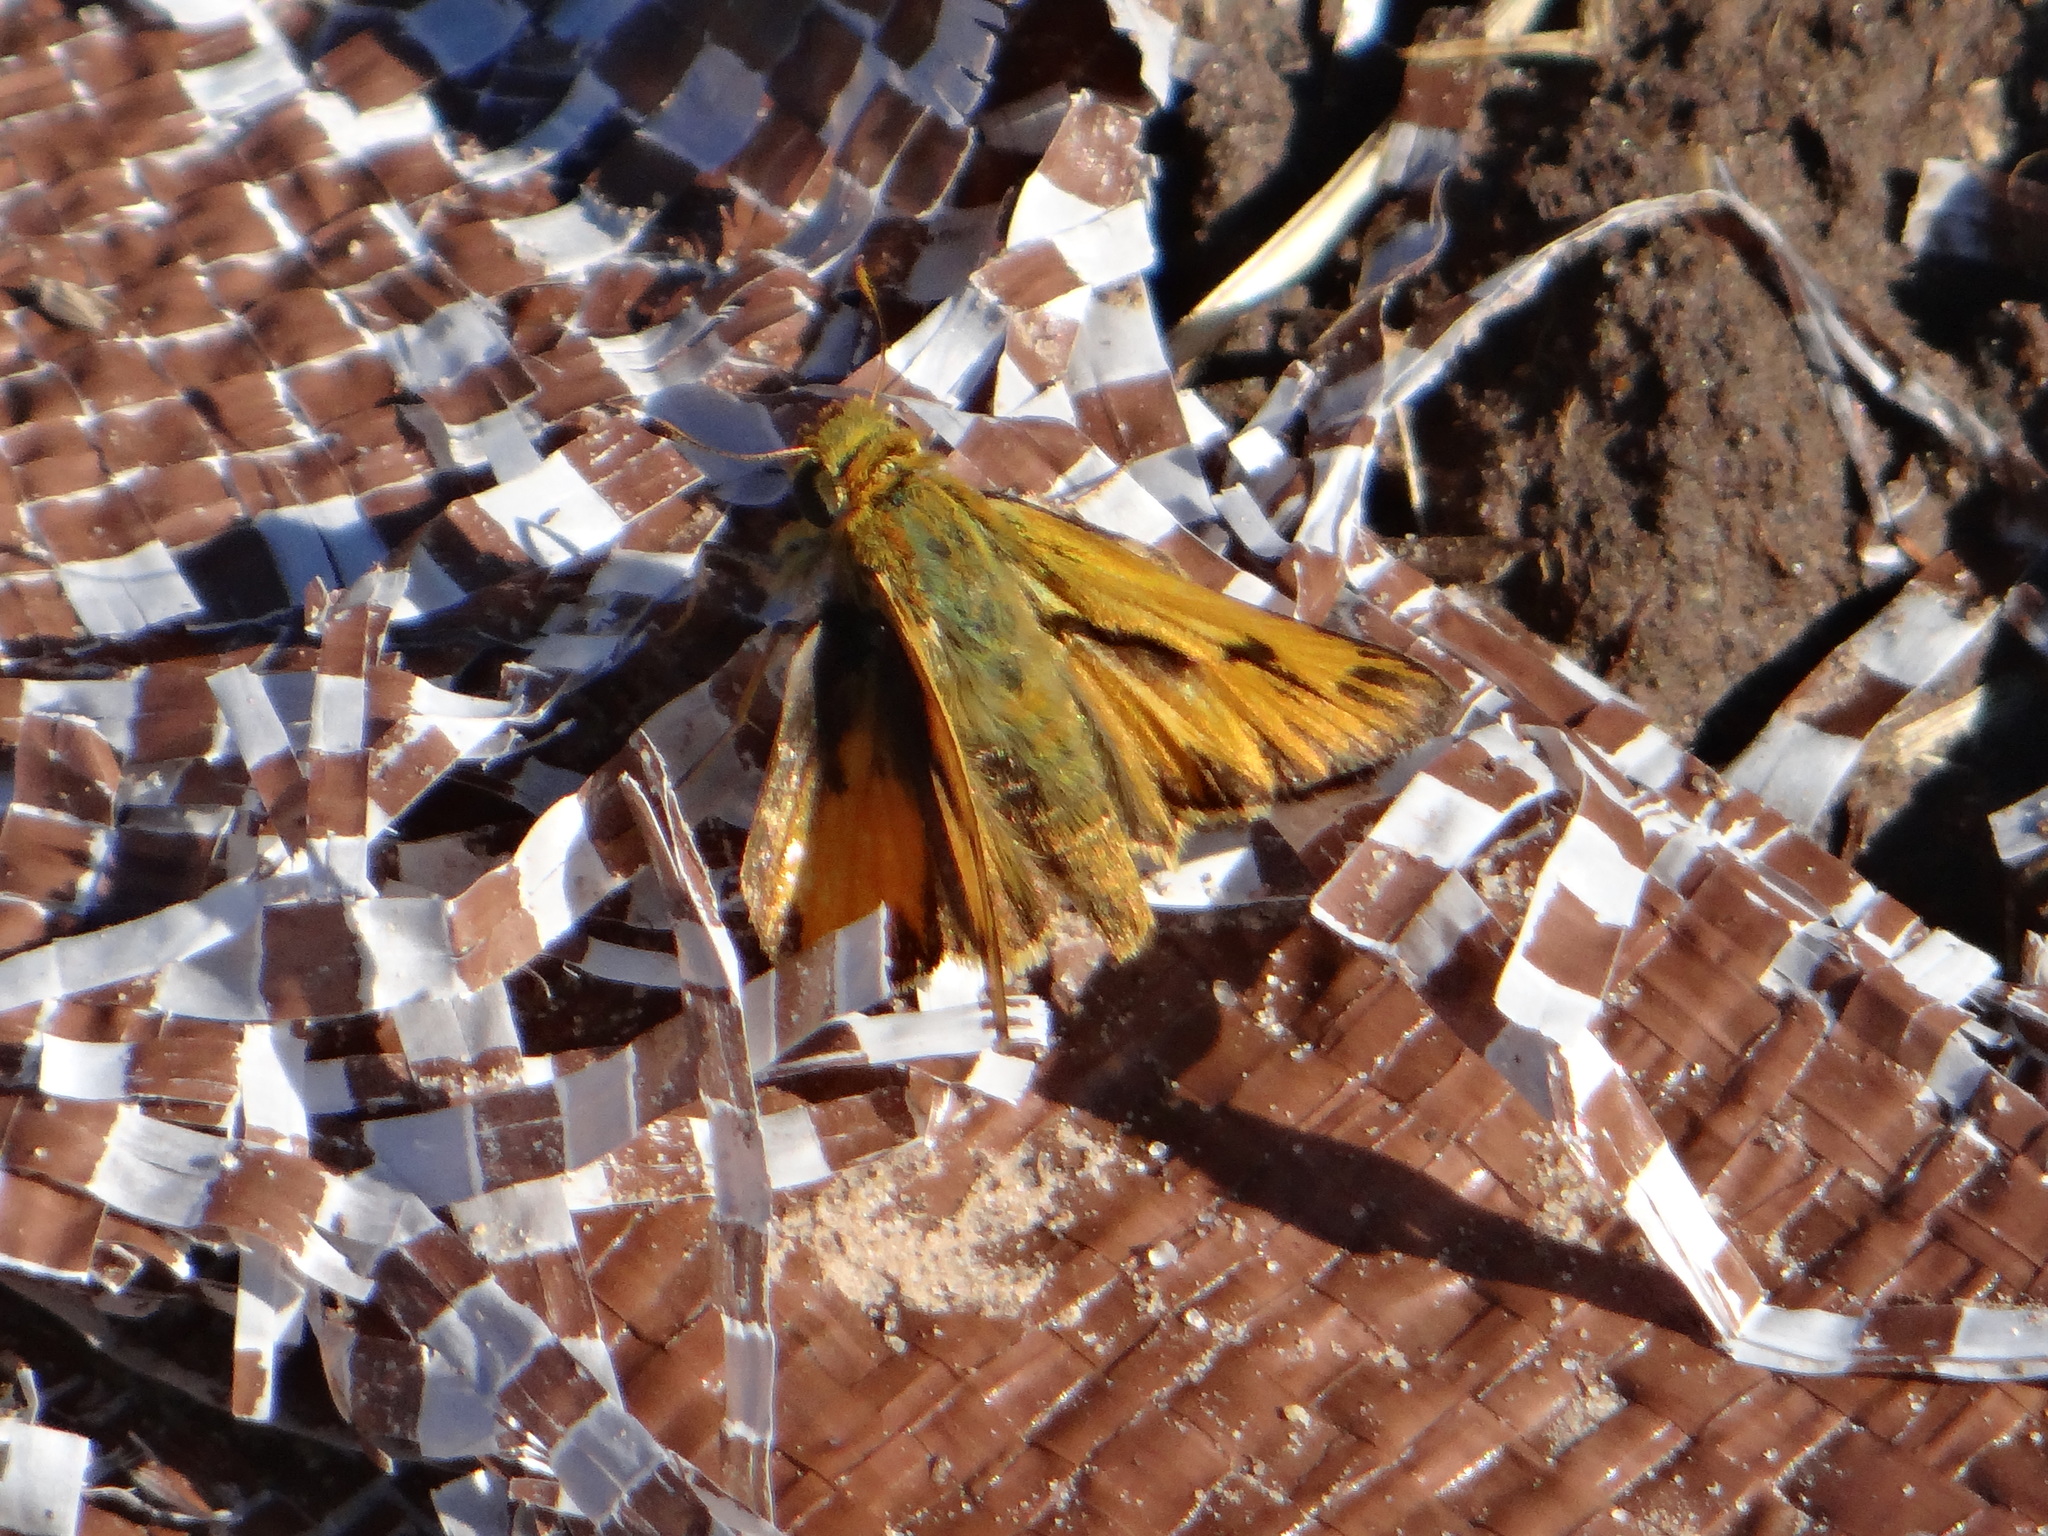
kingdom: Animalia
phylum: Arthropoda
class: Insecta
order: Lepidoptera
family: Hesperiidae
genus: Hylephila
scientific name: Hylephila phyleus
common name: Fiery skipper
